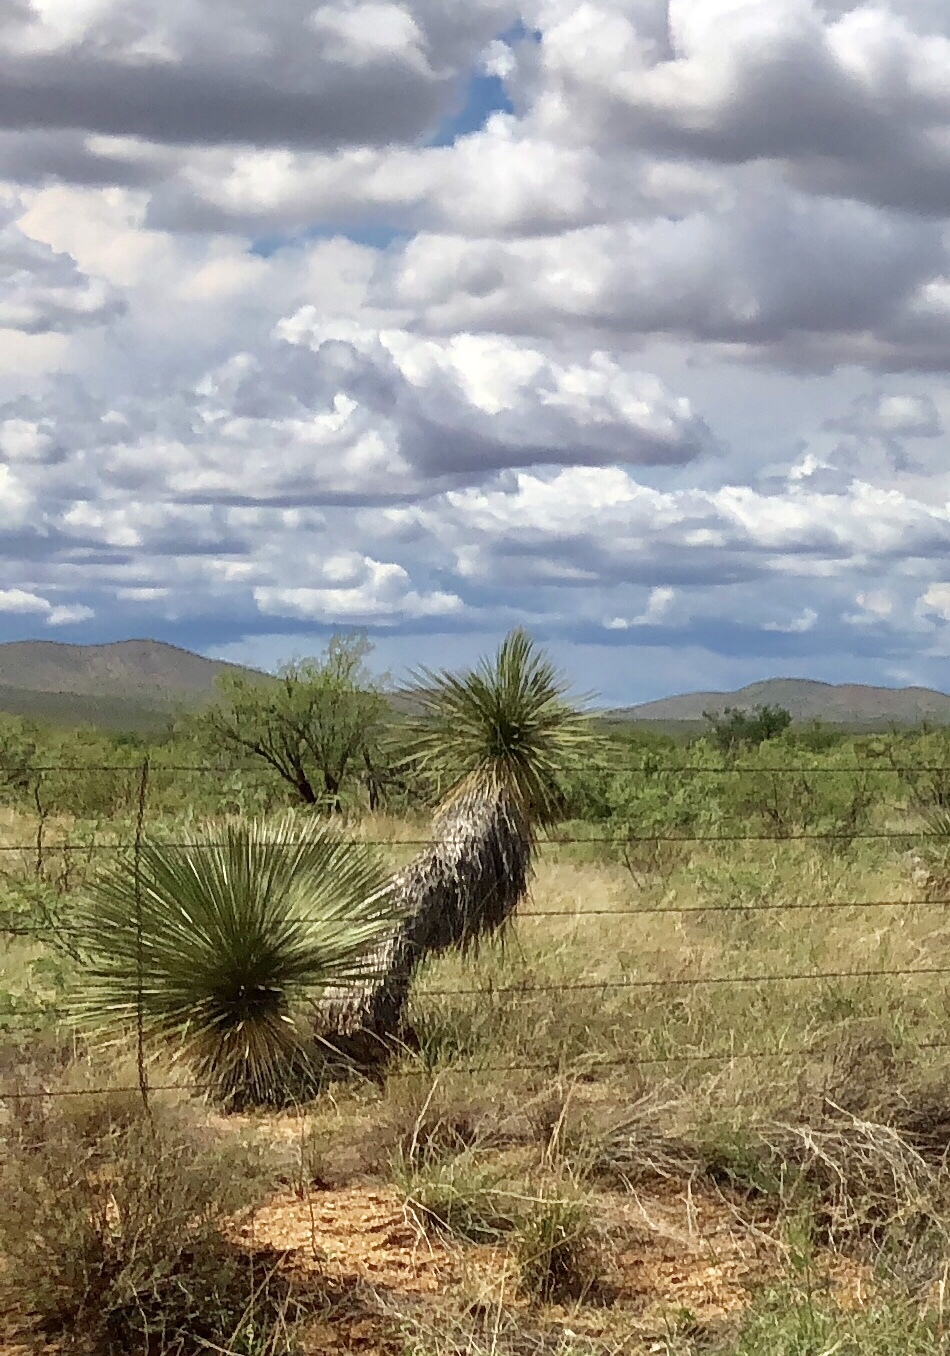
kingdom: Plantae
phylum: Tracheophyta
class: Liliopsida
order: Asparagales
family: Asparagaceae
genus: Yucca
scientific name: Yucca elata
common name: Palmella
